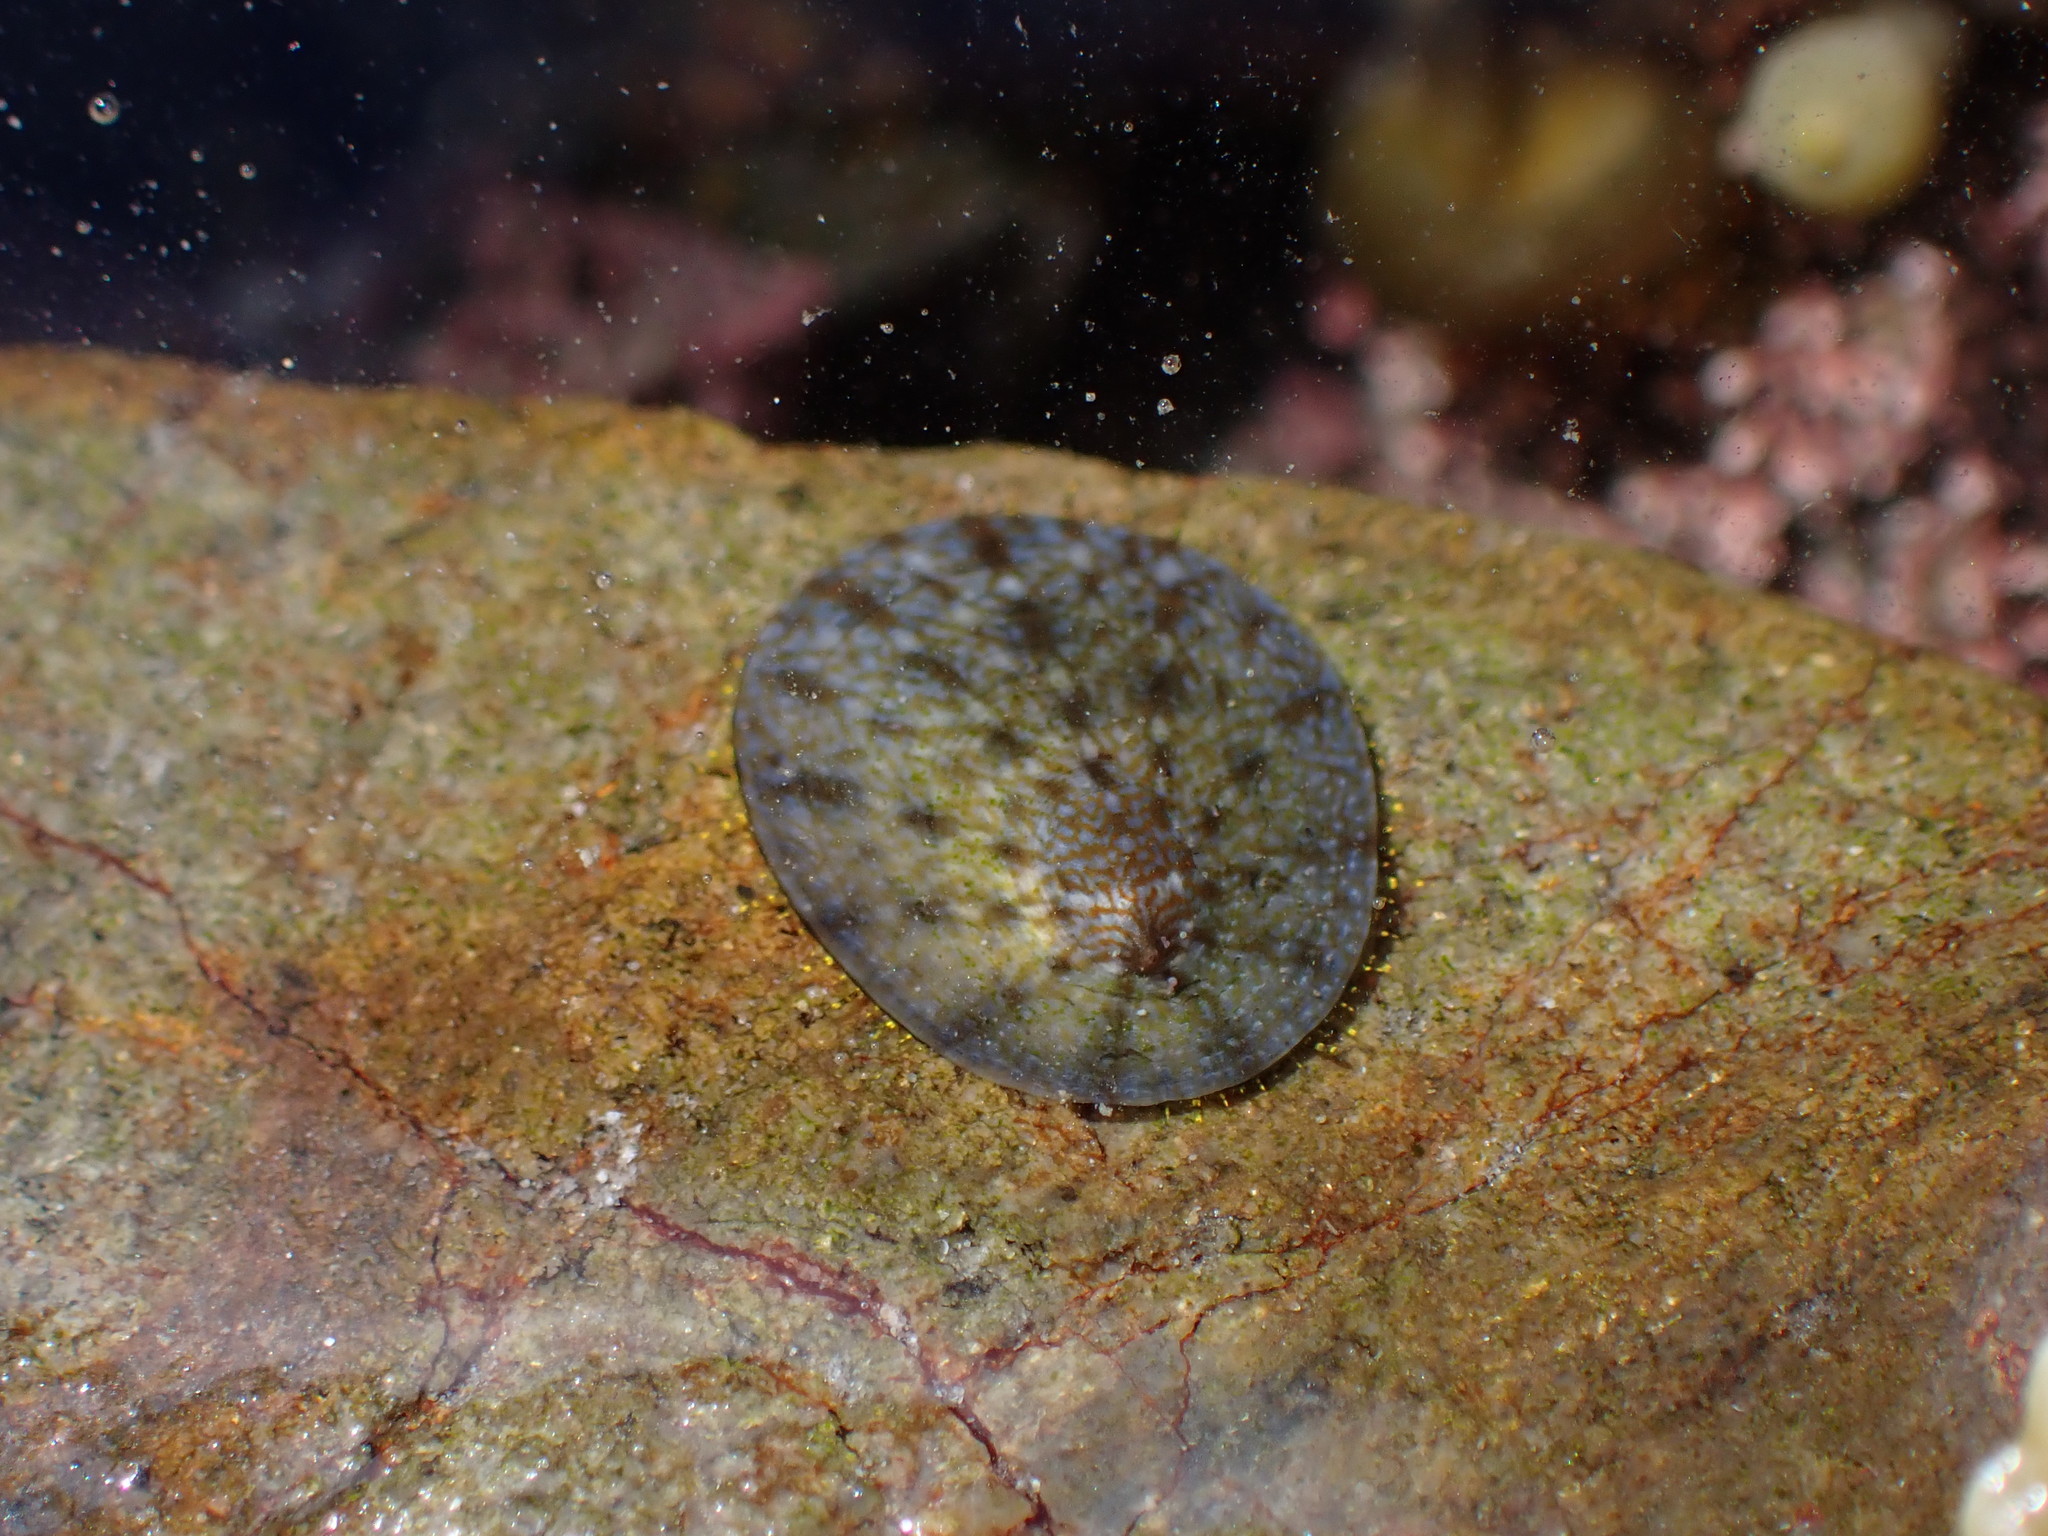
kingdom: Animalia
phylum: Mollusca
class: Gastropoda
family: Nacellidae
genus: Cellana
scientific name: Cellana radians
